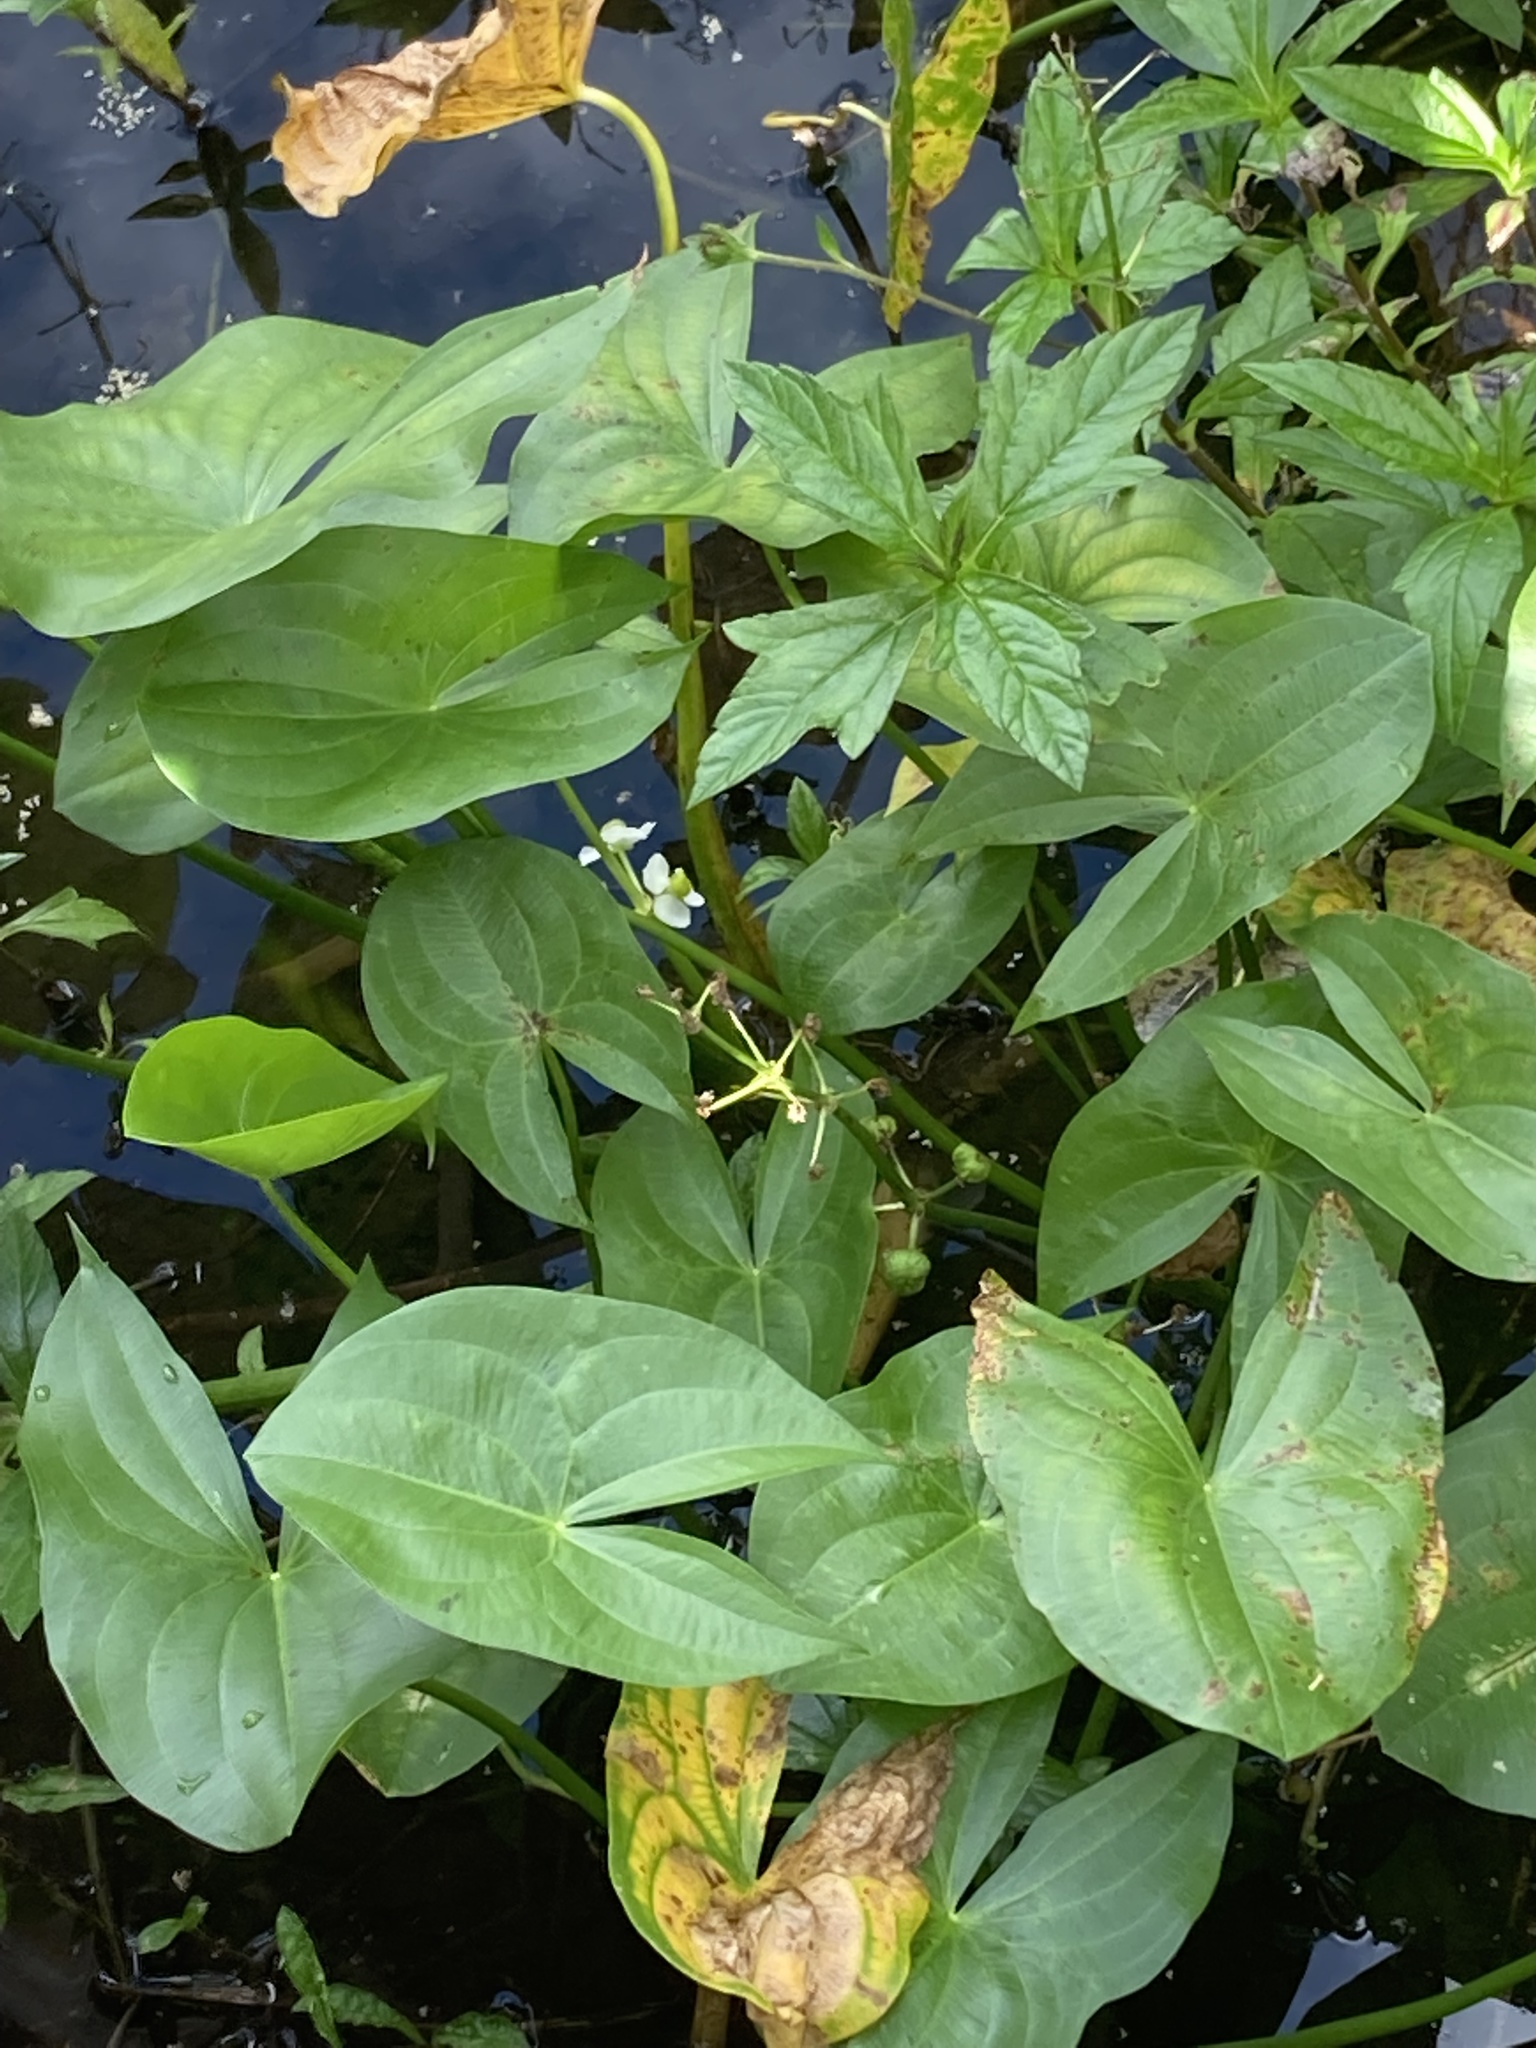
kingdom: Plantae
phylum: Tracheophyta
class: Liliopsida
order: Alismatales
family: Alismataceae
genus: Sagittaria
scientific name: Sagittaria latifolia
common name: Duck-potato
